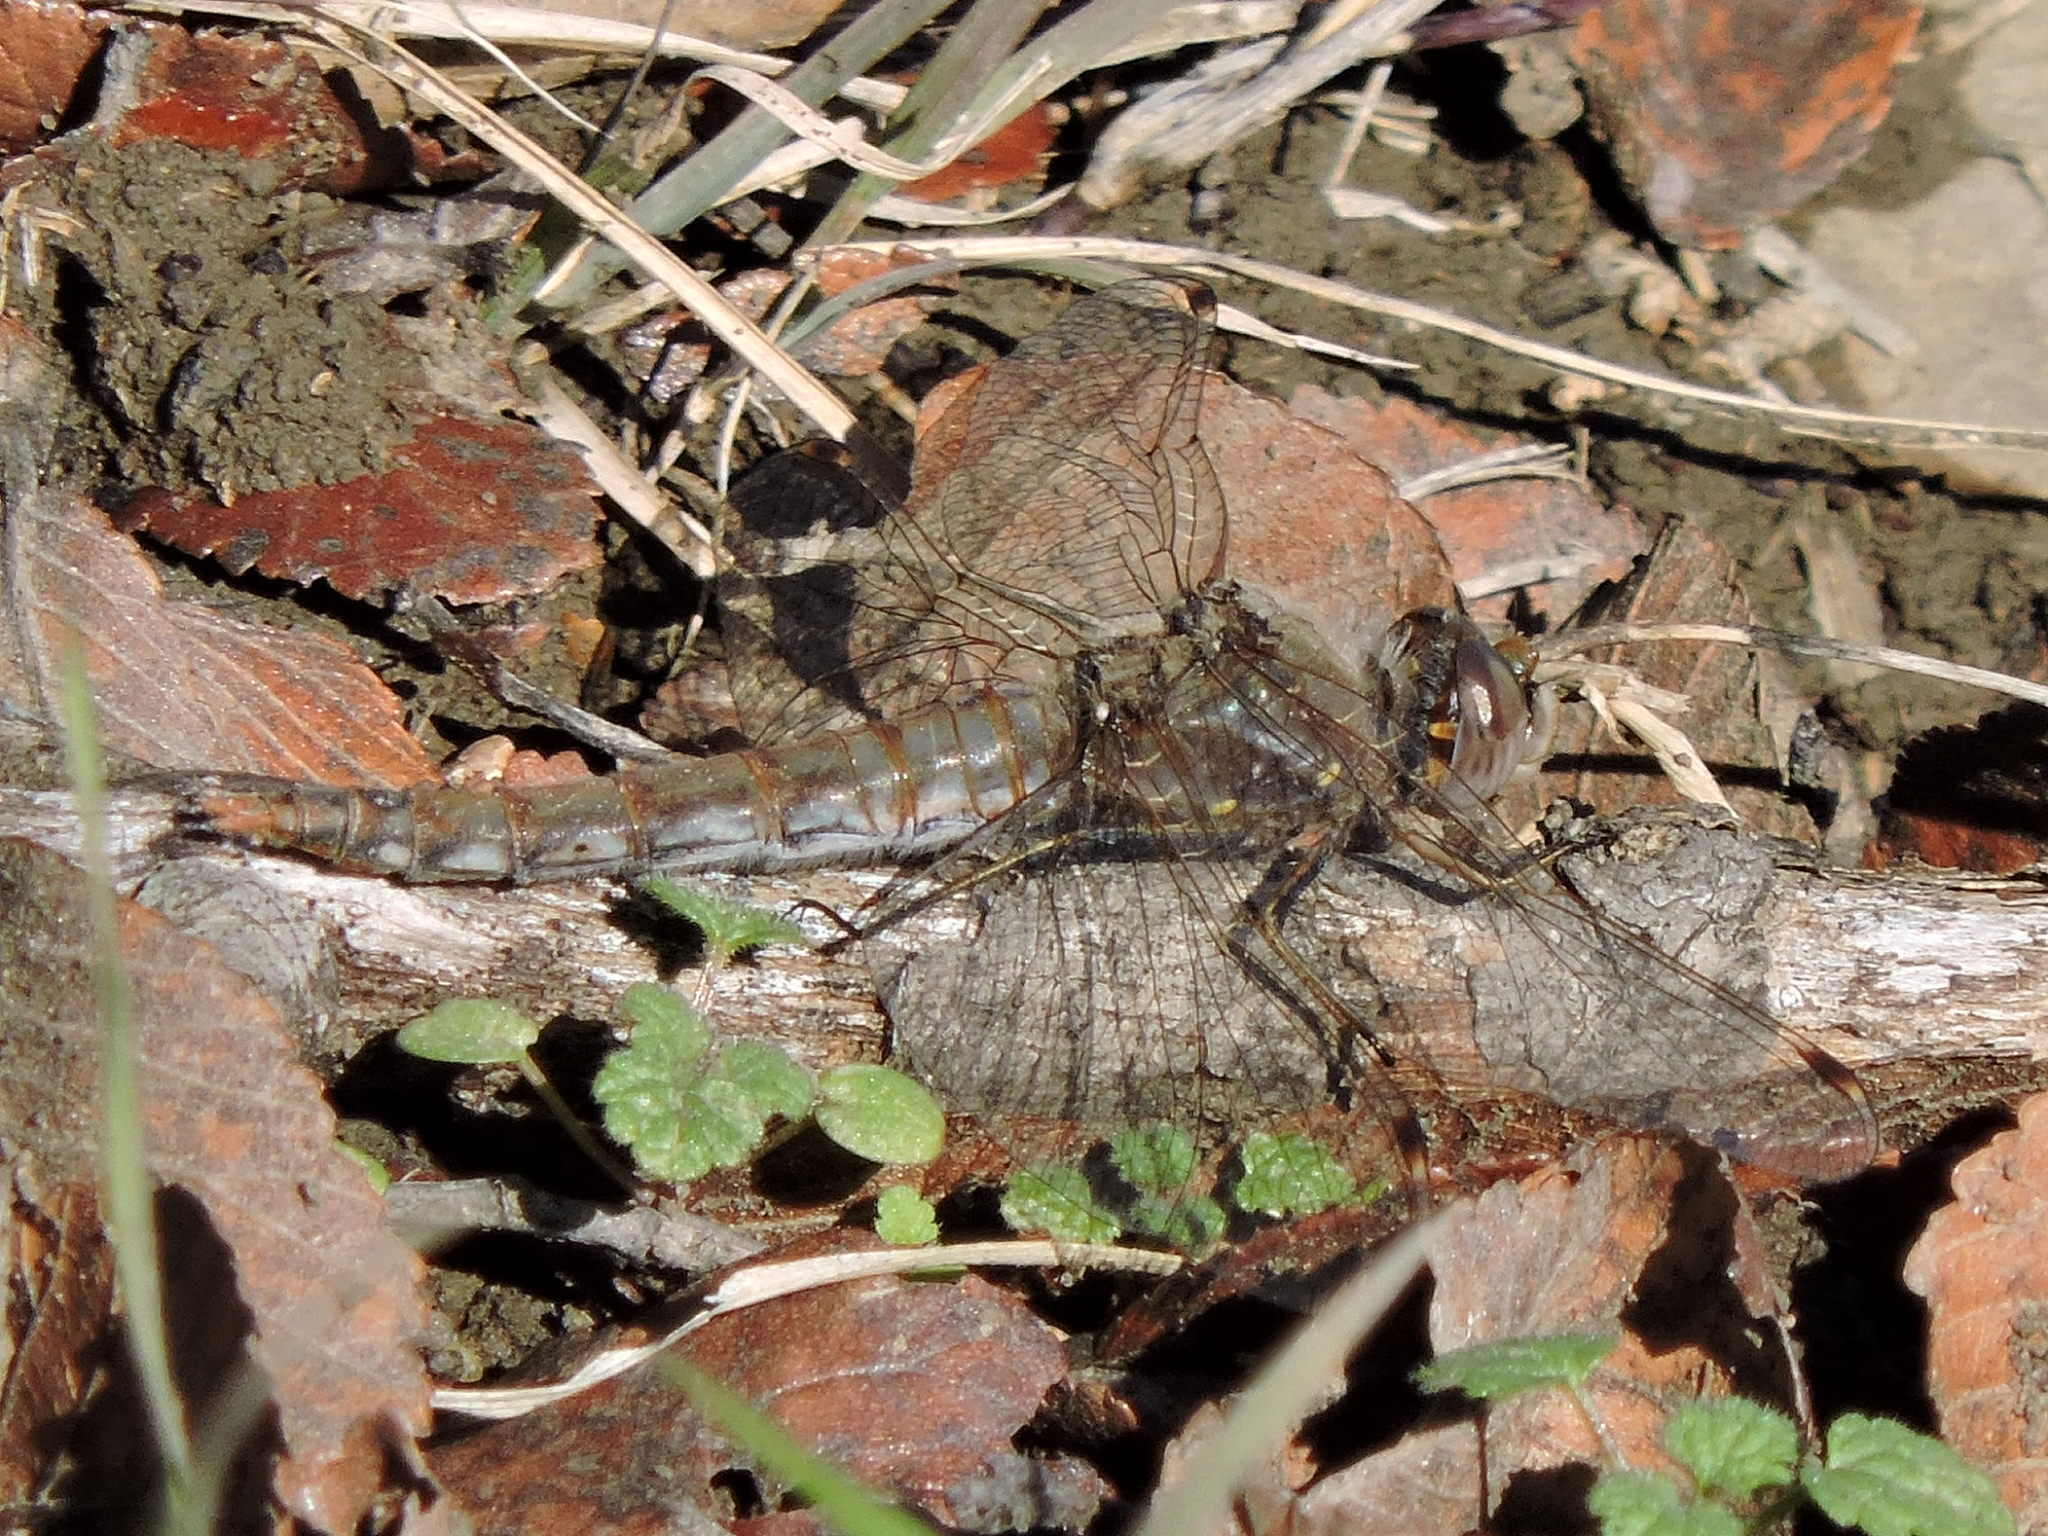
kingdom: Animalia
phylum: Arthropoda
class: Insecta
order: Odonata
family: Libellulidae
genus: Sympetrum
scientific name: Sympetrum corruptum
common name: Variegated meadowhawk
